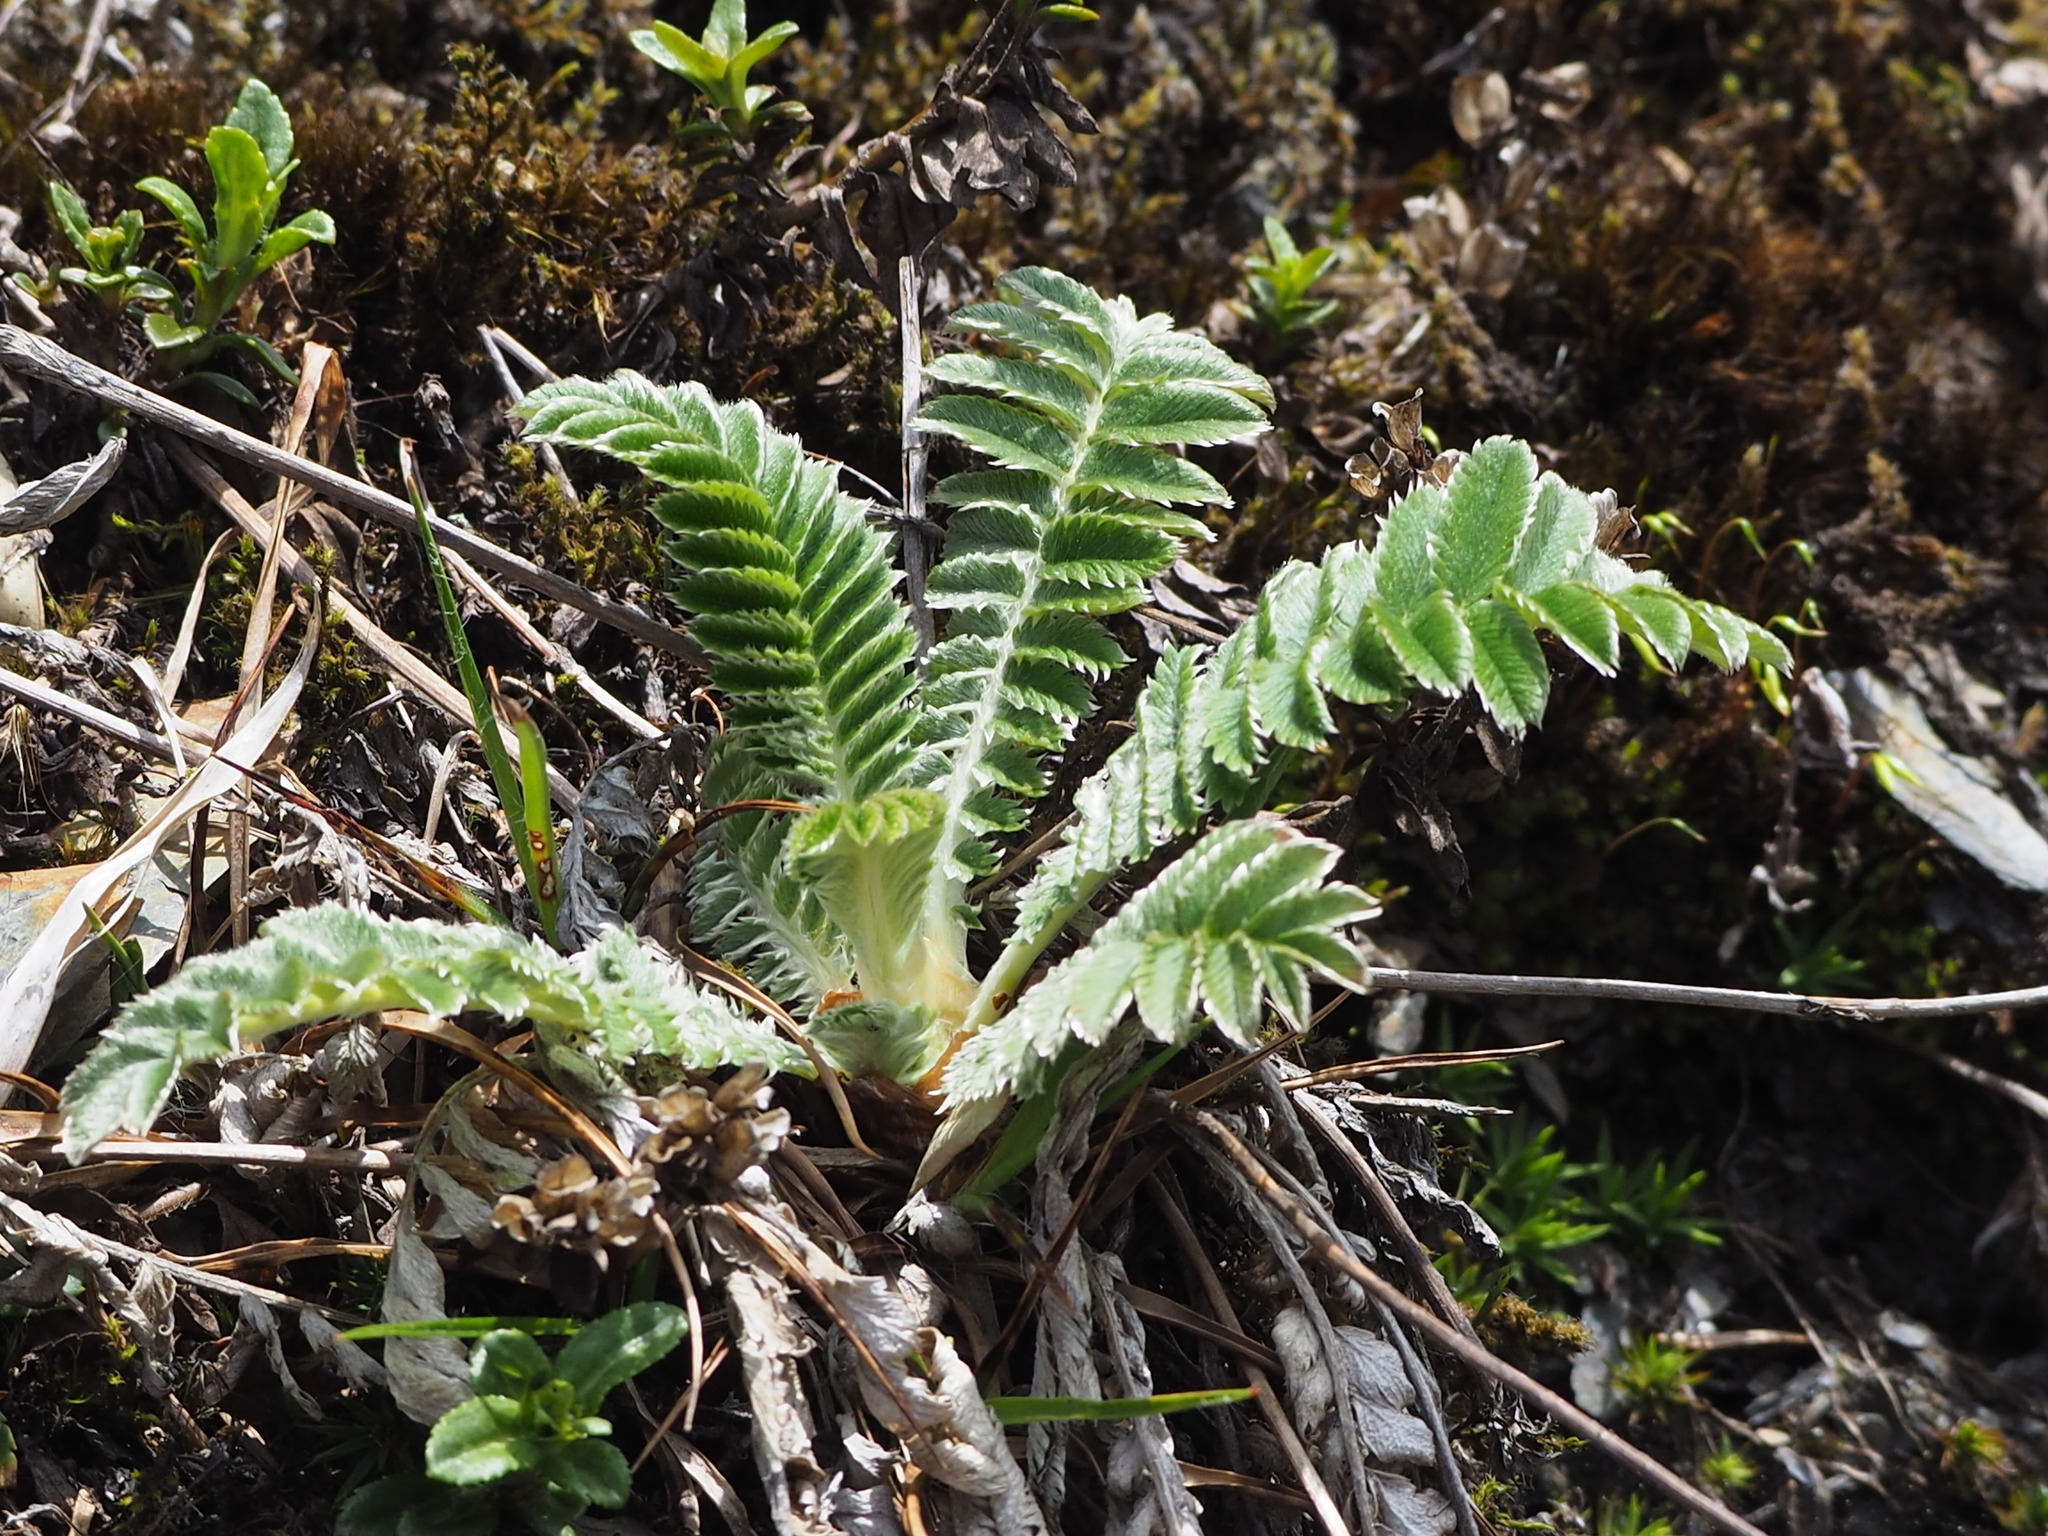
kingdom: Plantae
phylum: Tracheophyta
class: Magnoliopsida
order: Rosales
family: Rosaceae
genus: Argentina
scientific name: Argentina leuconota
